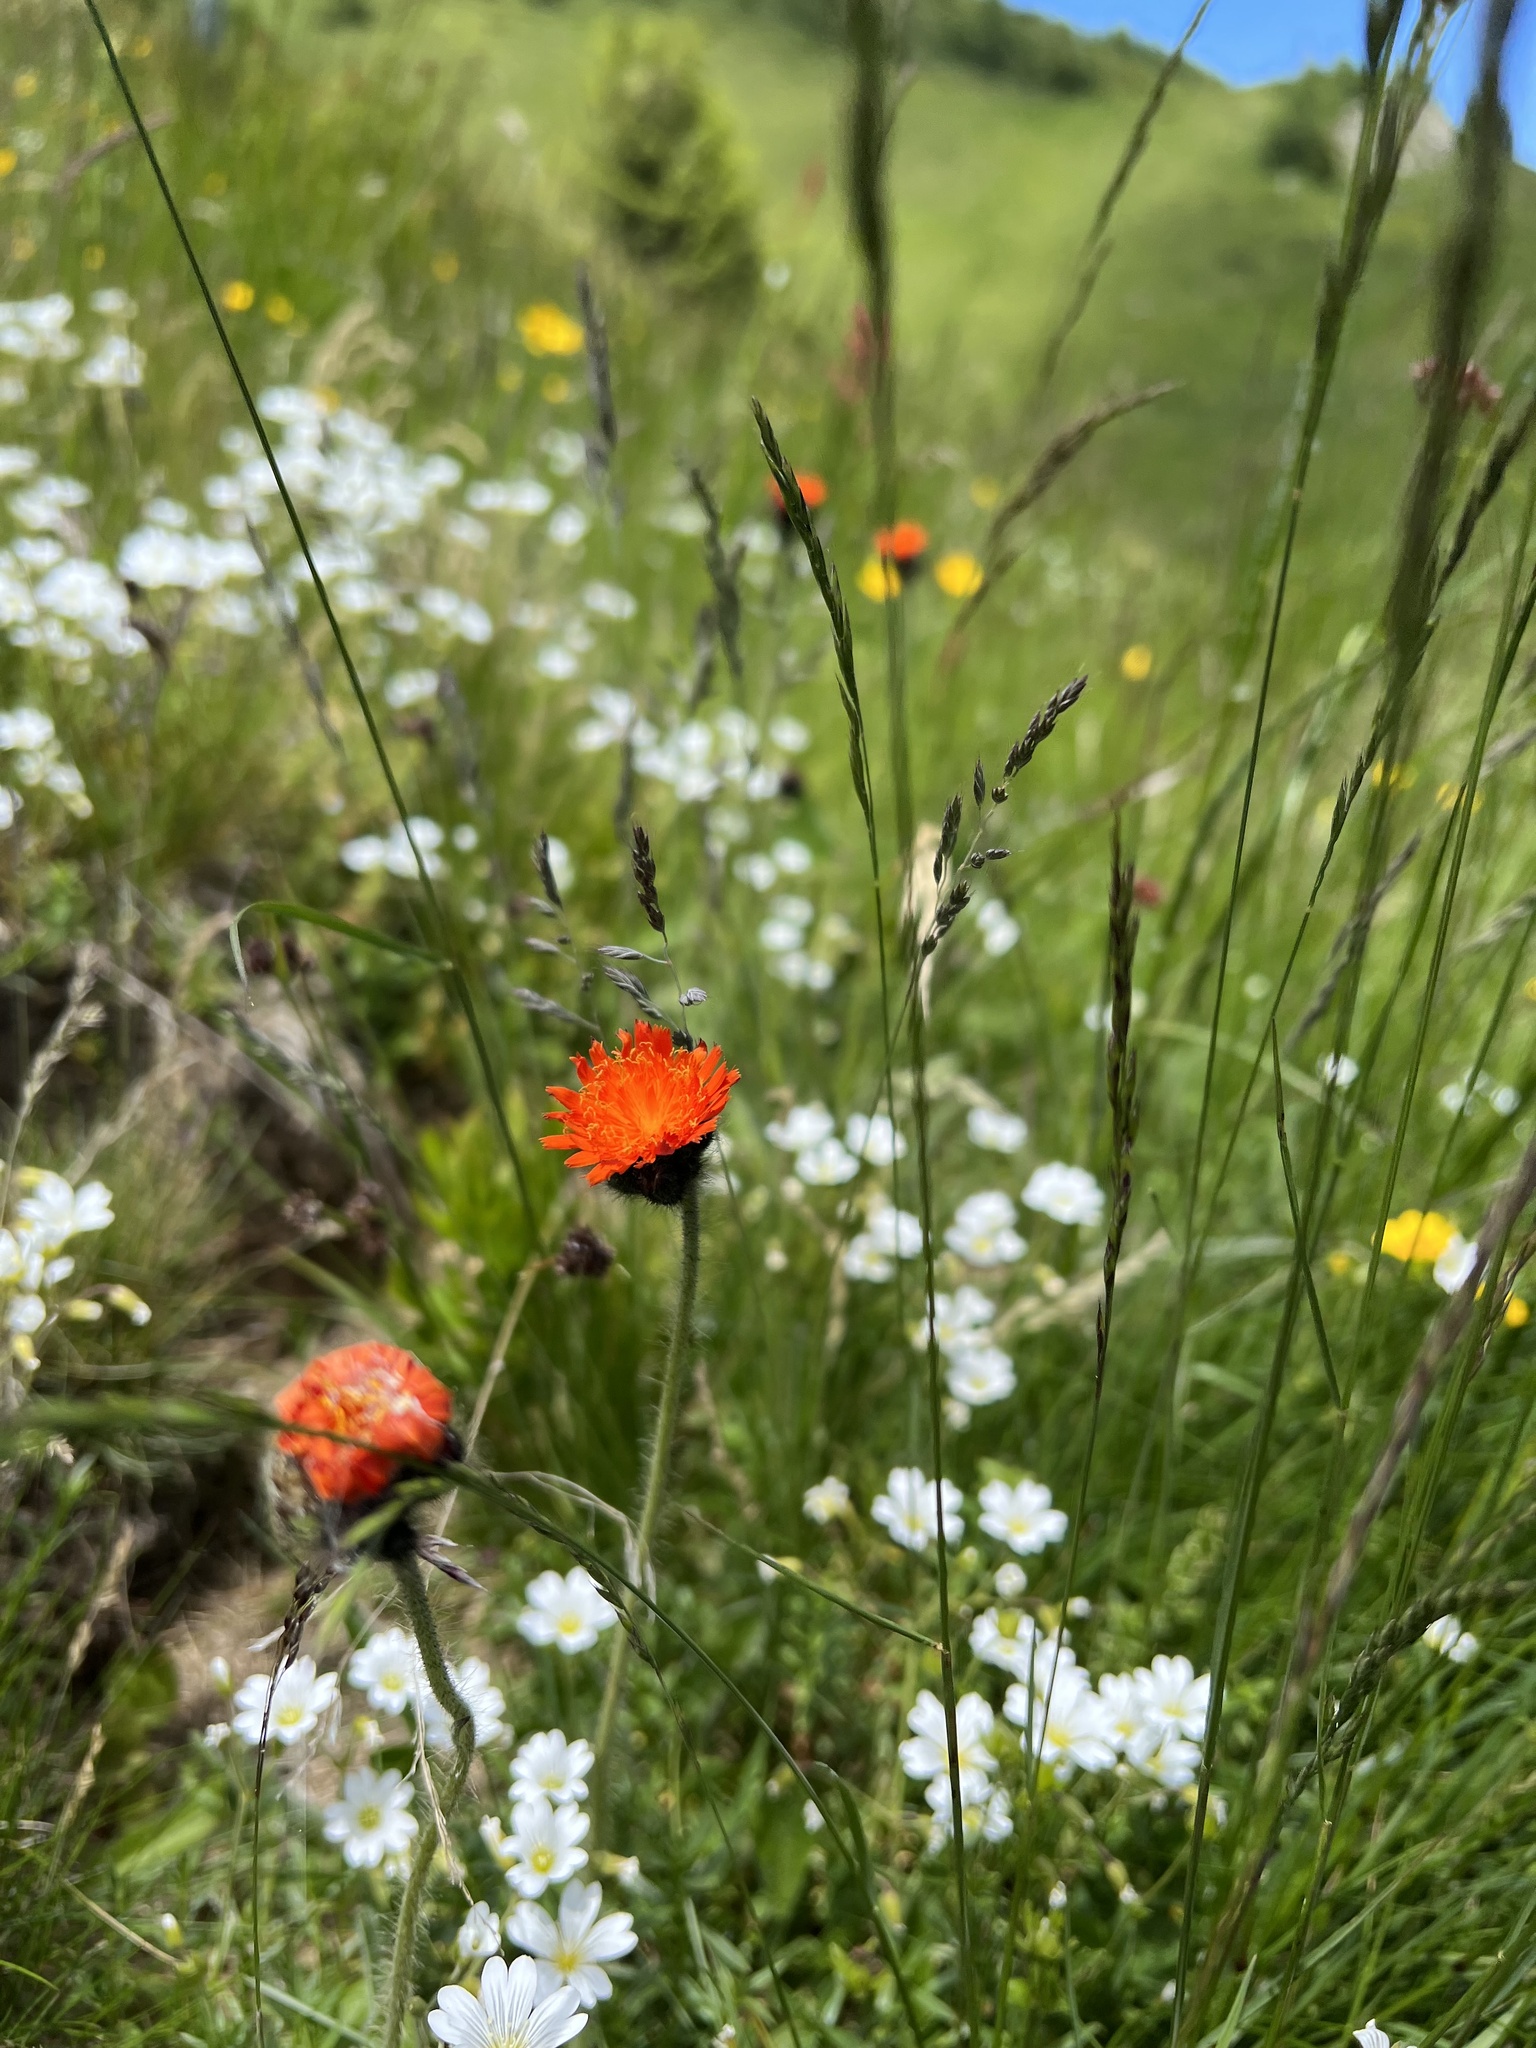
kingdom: Plantae
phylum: Tracheophyta
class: Magnoliopsida
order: Asterales
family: Asteraceae
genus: Pilosella
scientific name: Pilosella aurantiaca
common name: Fox-and-cubs
